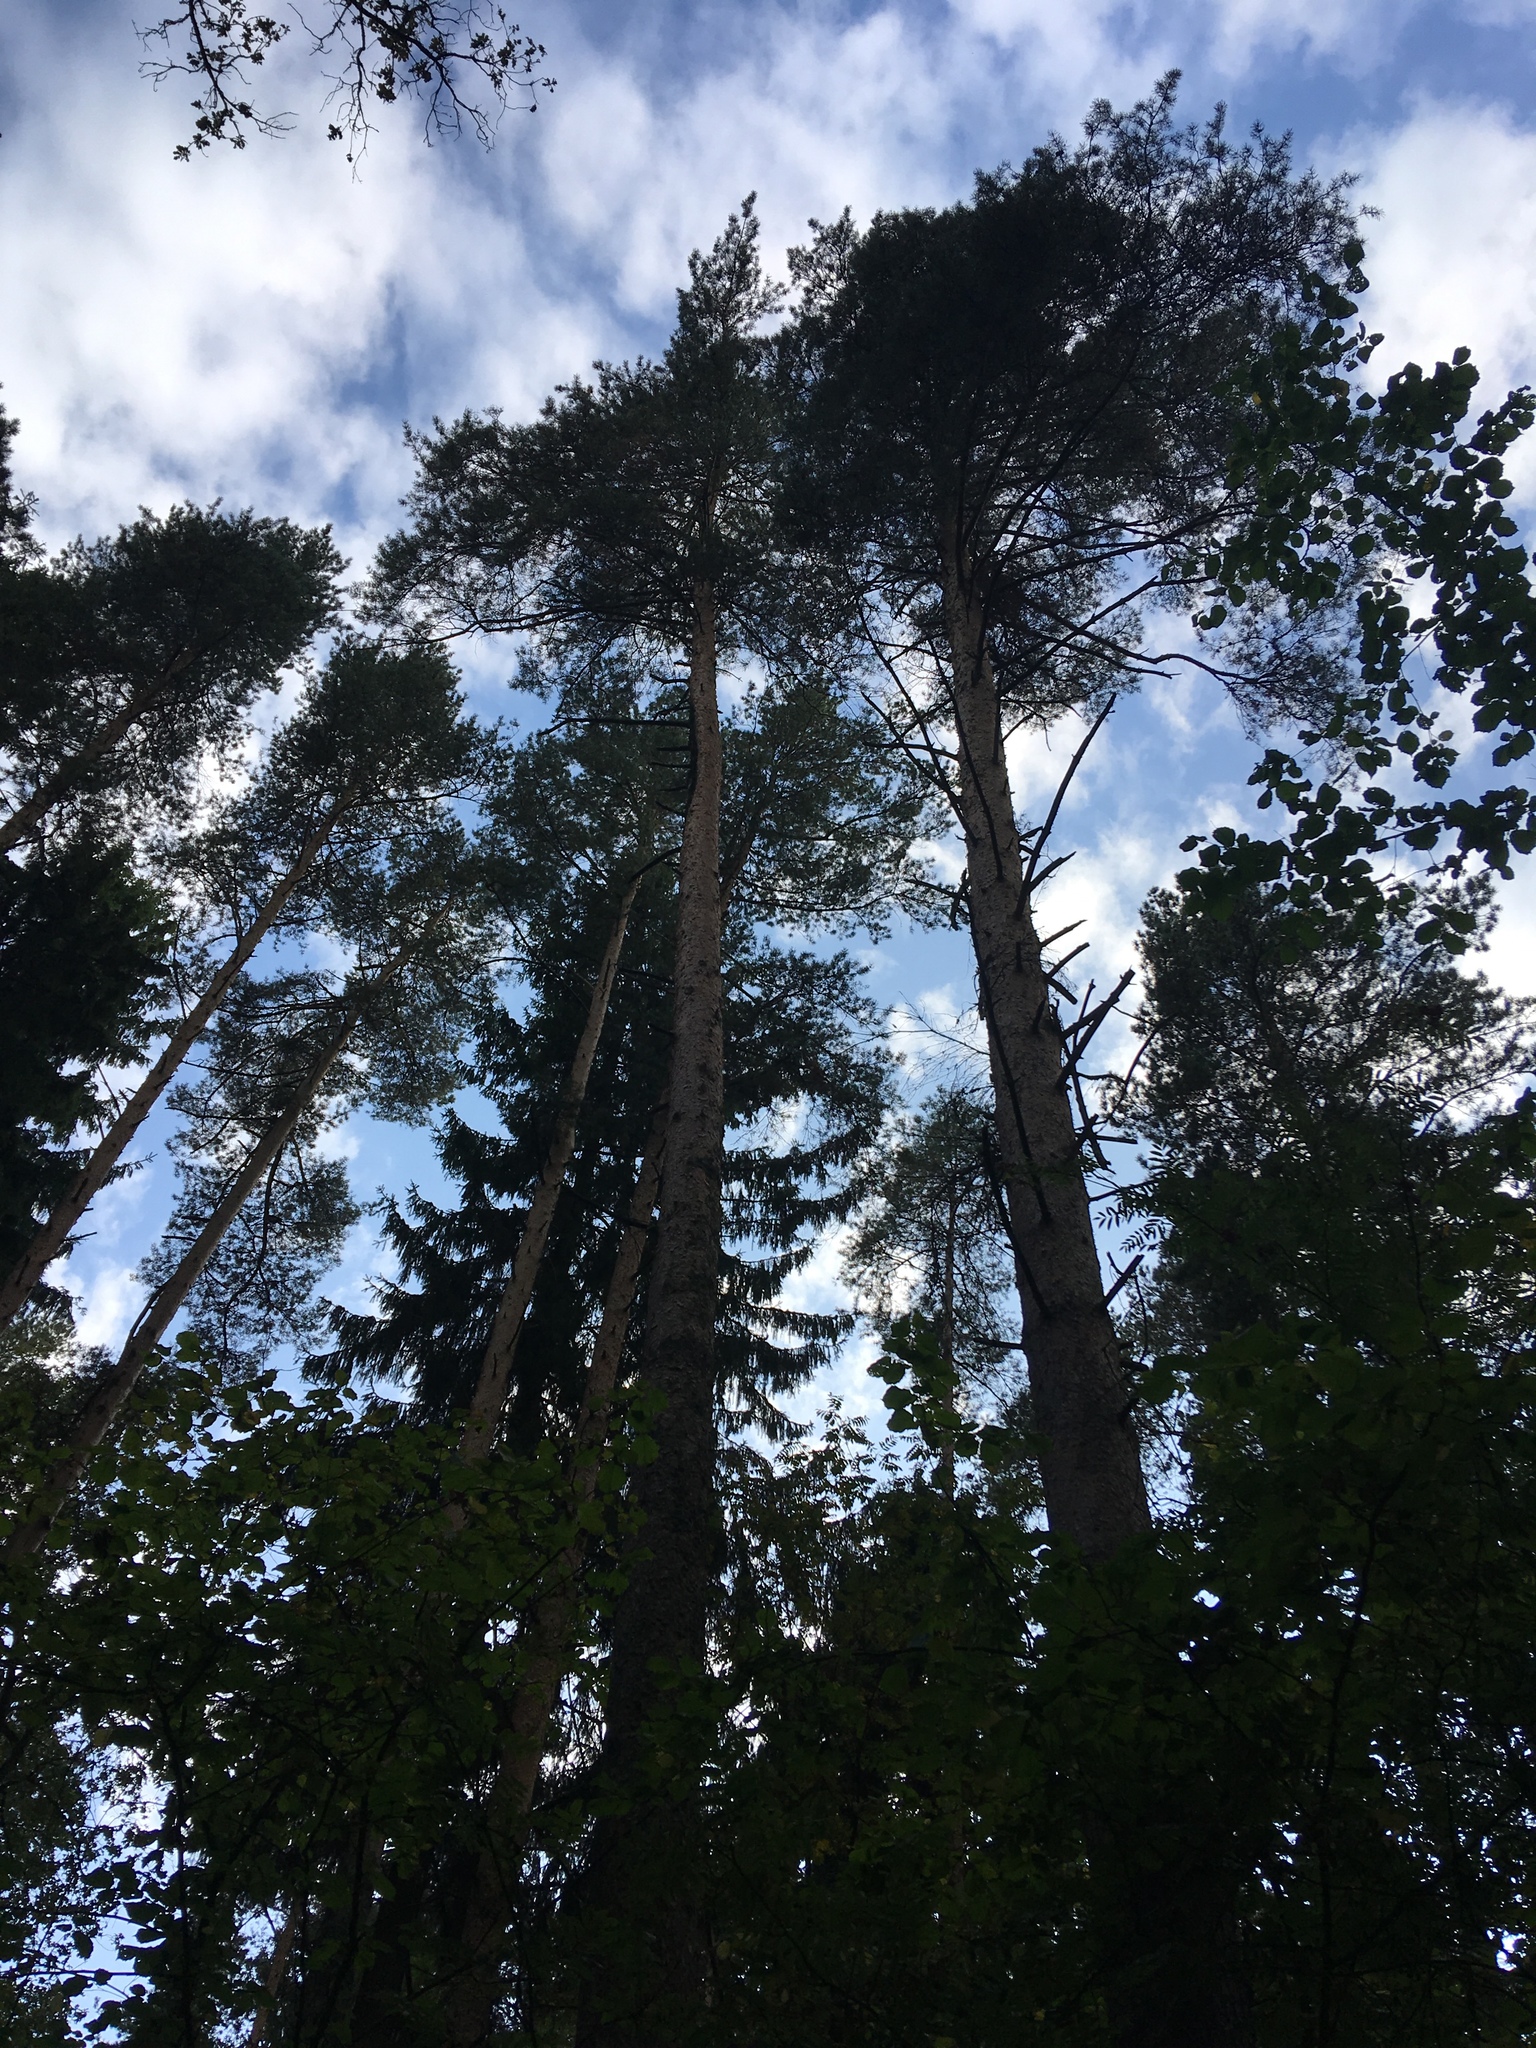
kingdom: Plantae
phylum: Tracheophyta
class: Pinopsida
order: Pinales
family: Pinaceae
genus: Pinus
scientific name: Pinus sylvestris
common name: Scots pine
